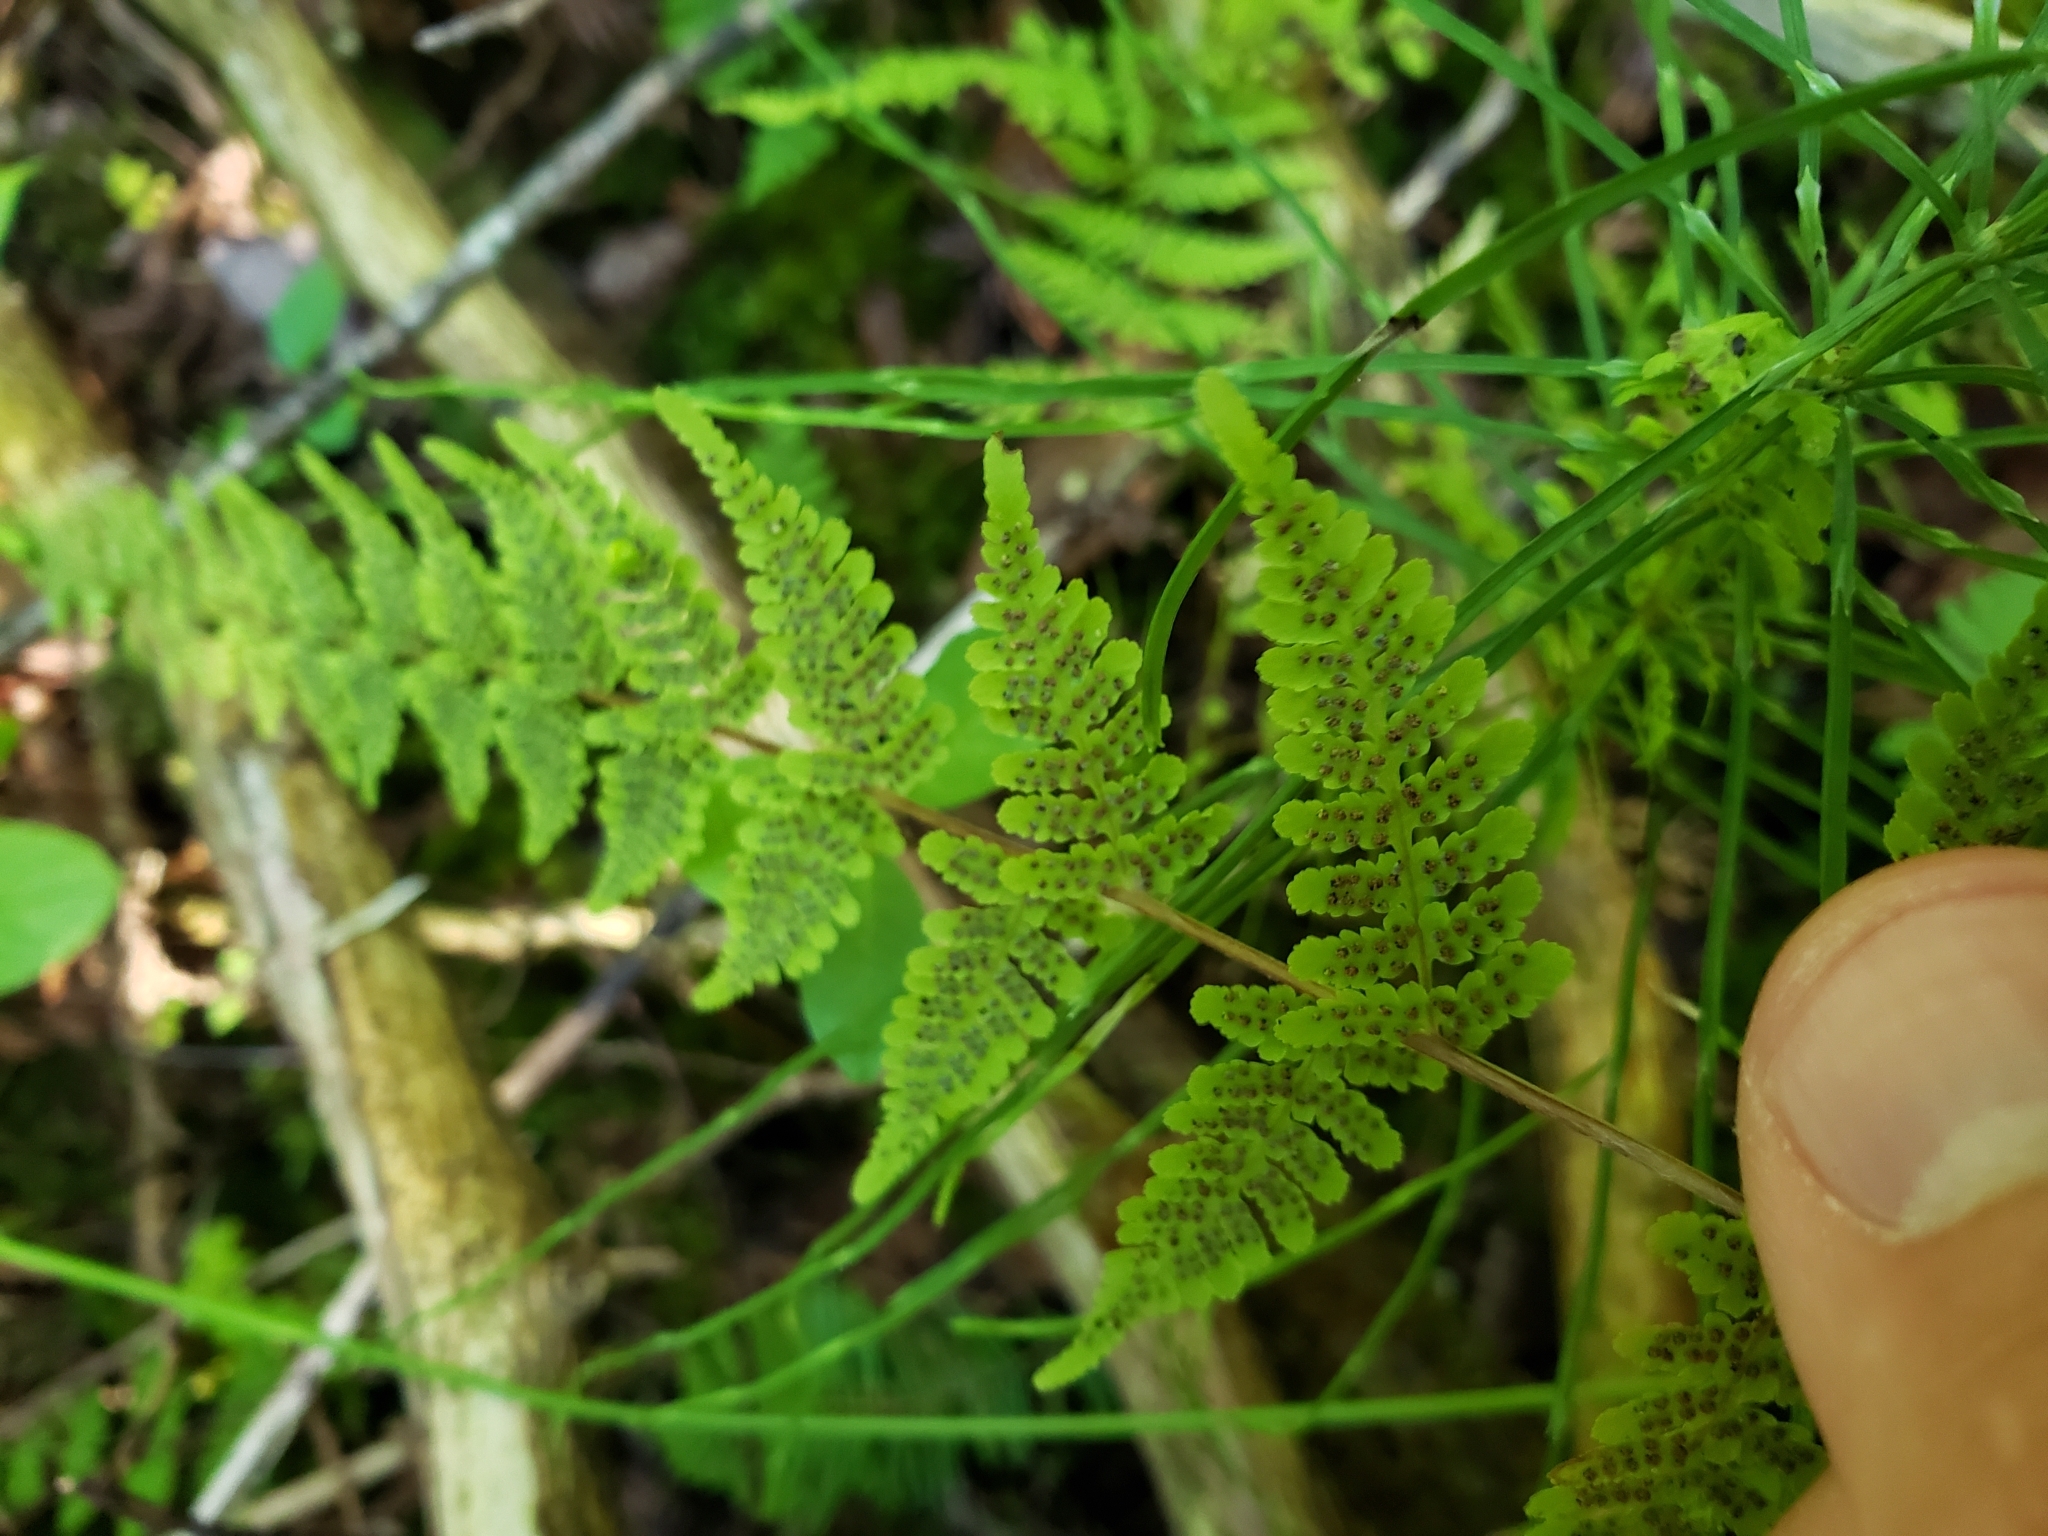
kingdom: Plantae
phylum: Tracheophyta
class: Polypodiopsida
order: Polypodiales
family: Cystopteridaceae
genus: Cystopteris
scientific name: Cystopteris bulbifera
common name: Bulblet bladder fern
